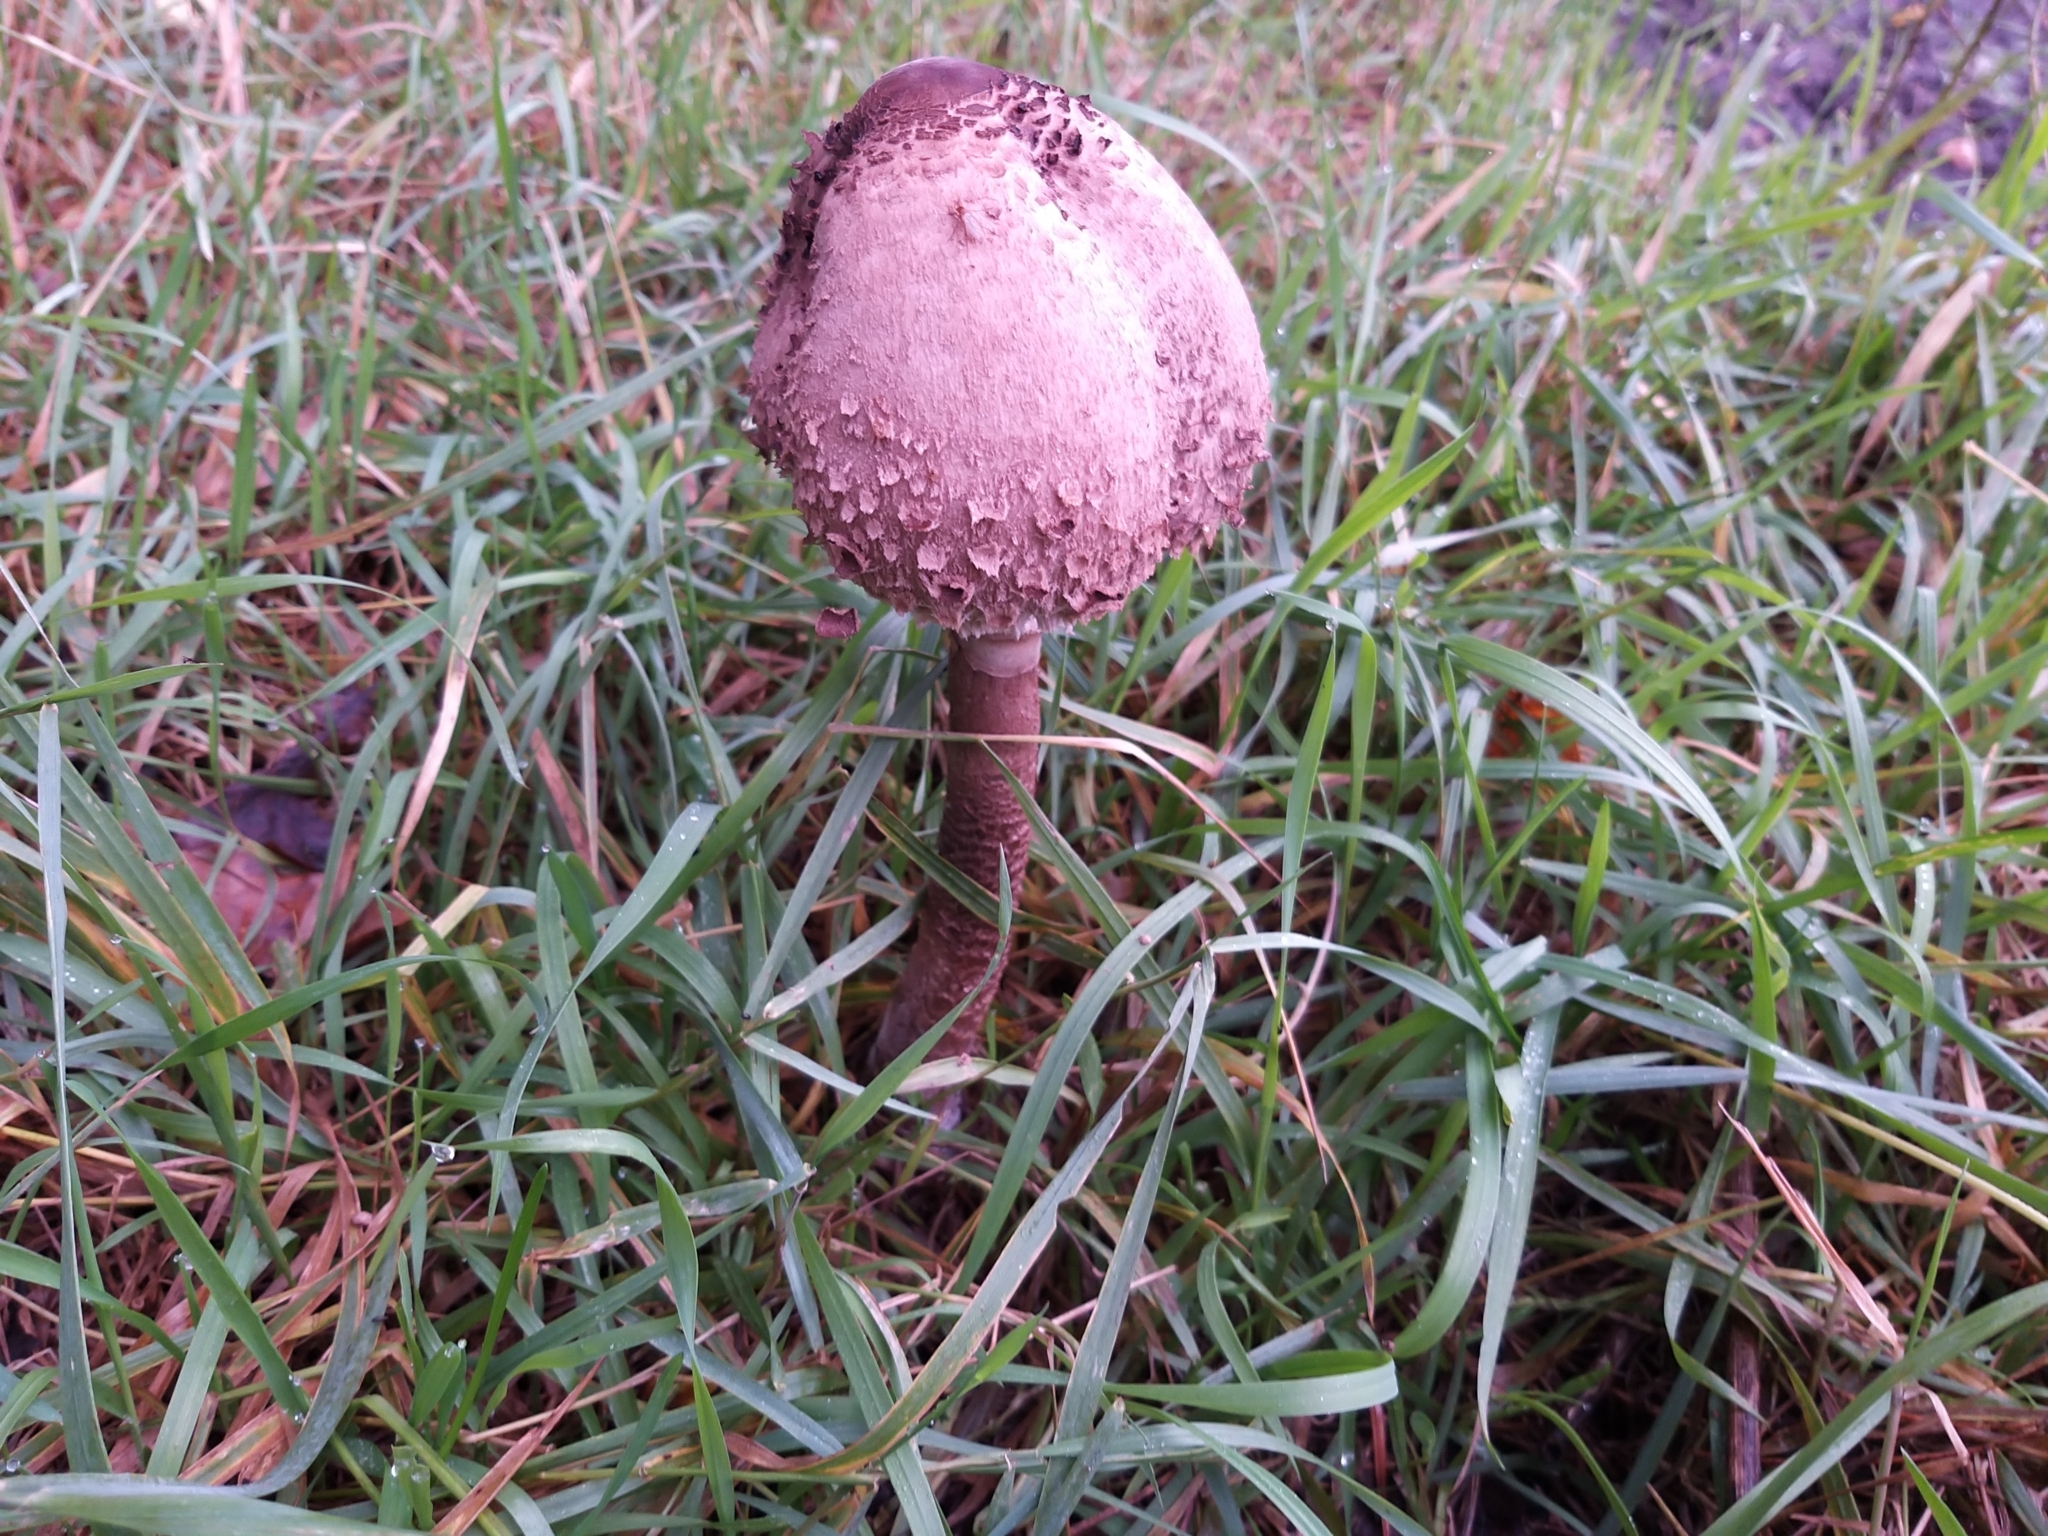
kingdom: Fungi
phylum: Basidiomycota
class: Agaricomycetes
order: Agaricales
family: Agaricaceae
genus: Macrolepiota
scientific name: Macrolepiota procera
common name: Parasol
